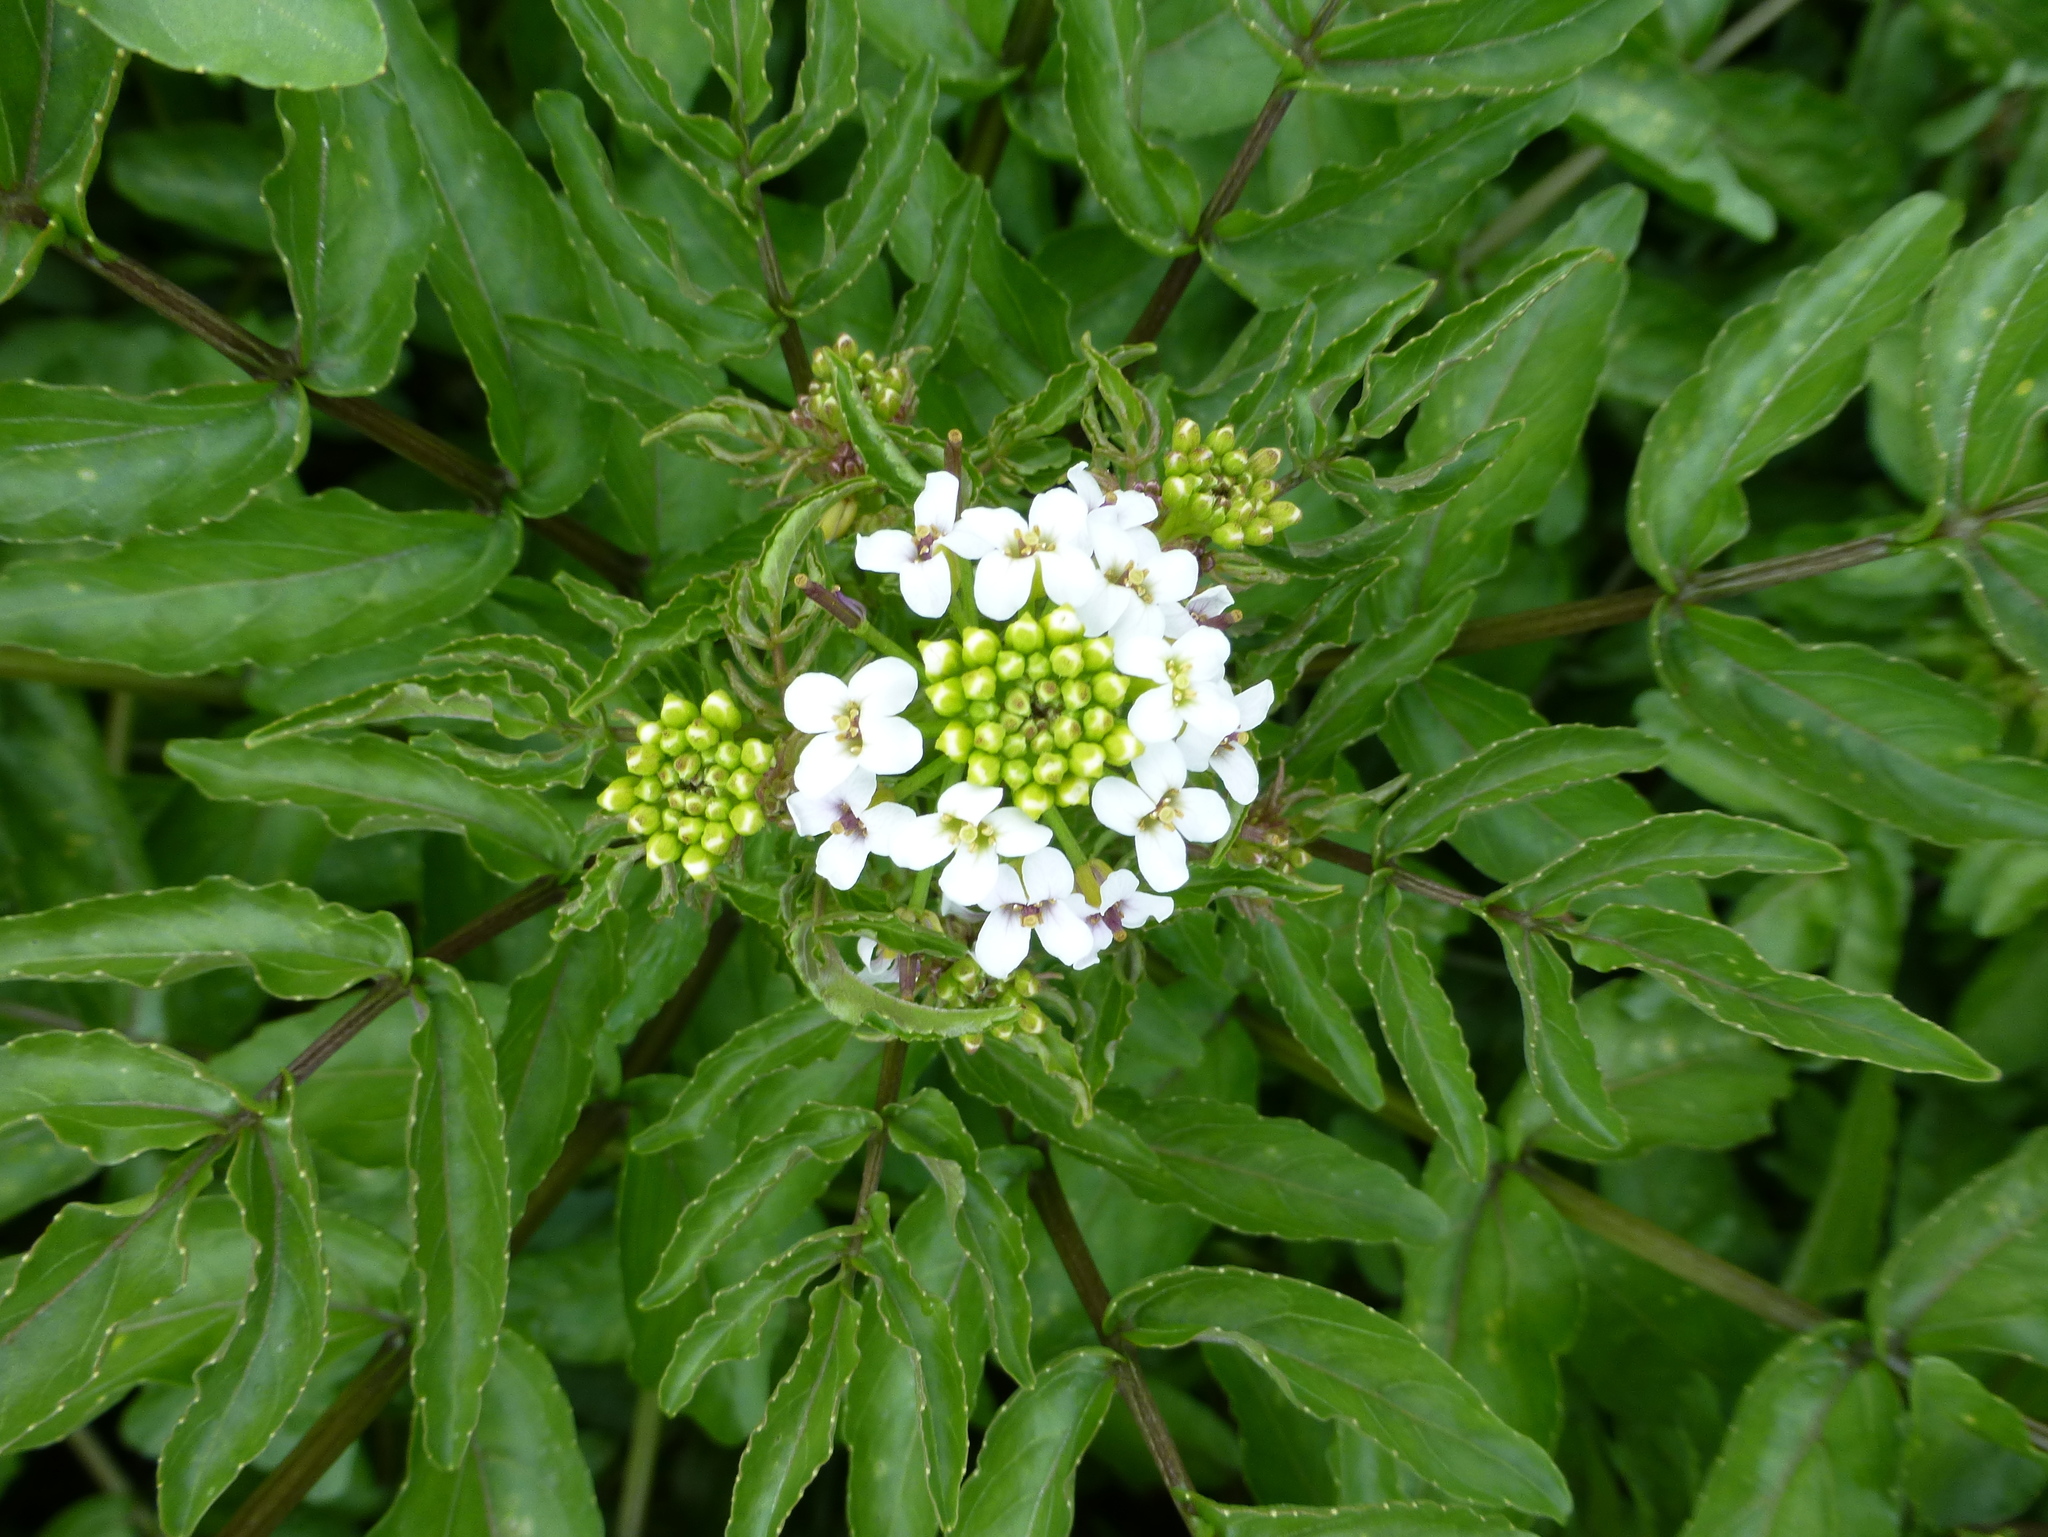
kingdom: Plantae
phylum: Tracheophyta
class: Magnoliopsida
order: Brassicales
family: Brassicaceae
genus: Nasturtium
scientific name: Nasturtium officinale
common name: Watercress
